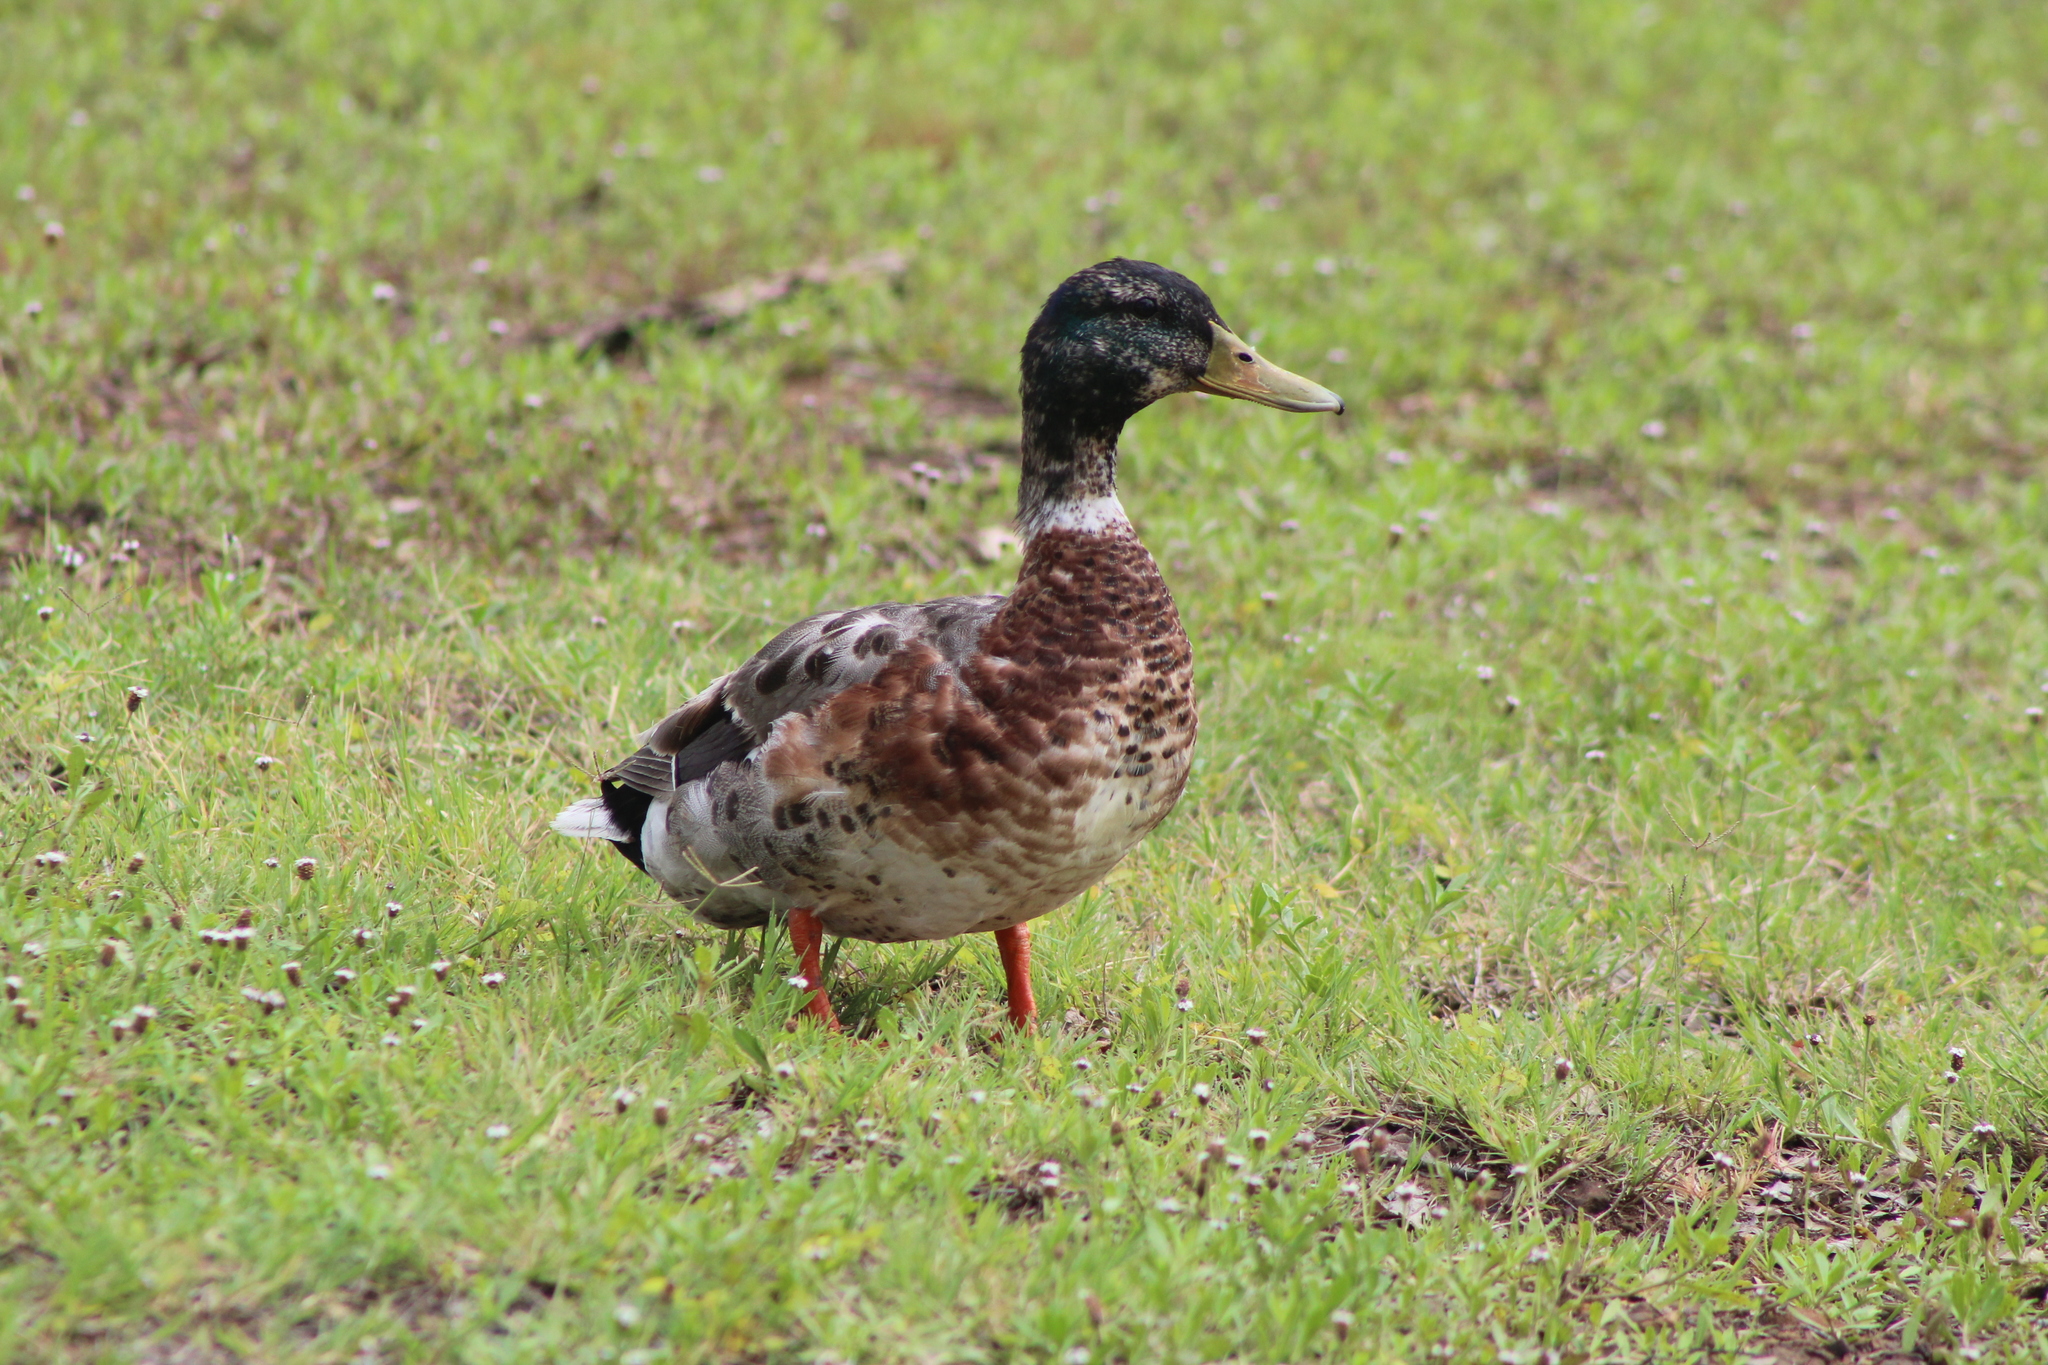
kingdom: Animalia
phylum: Chordata
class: Aves
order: Anseriformes
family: Anatidae
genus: Anas
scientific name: Anas platyrhynchos
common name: Mallard
